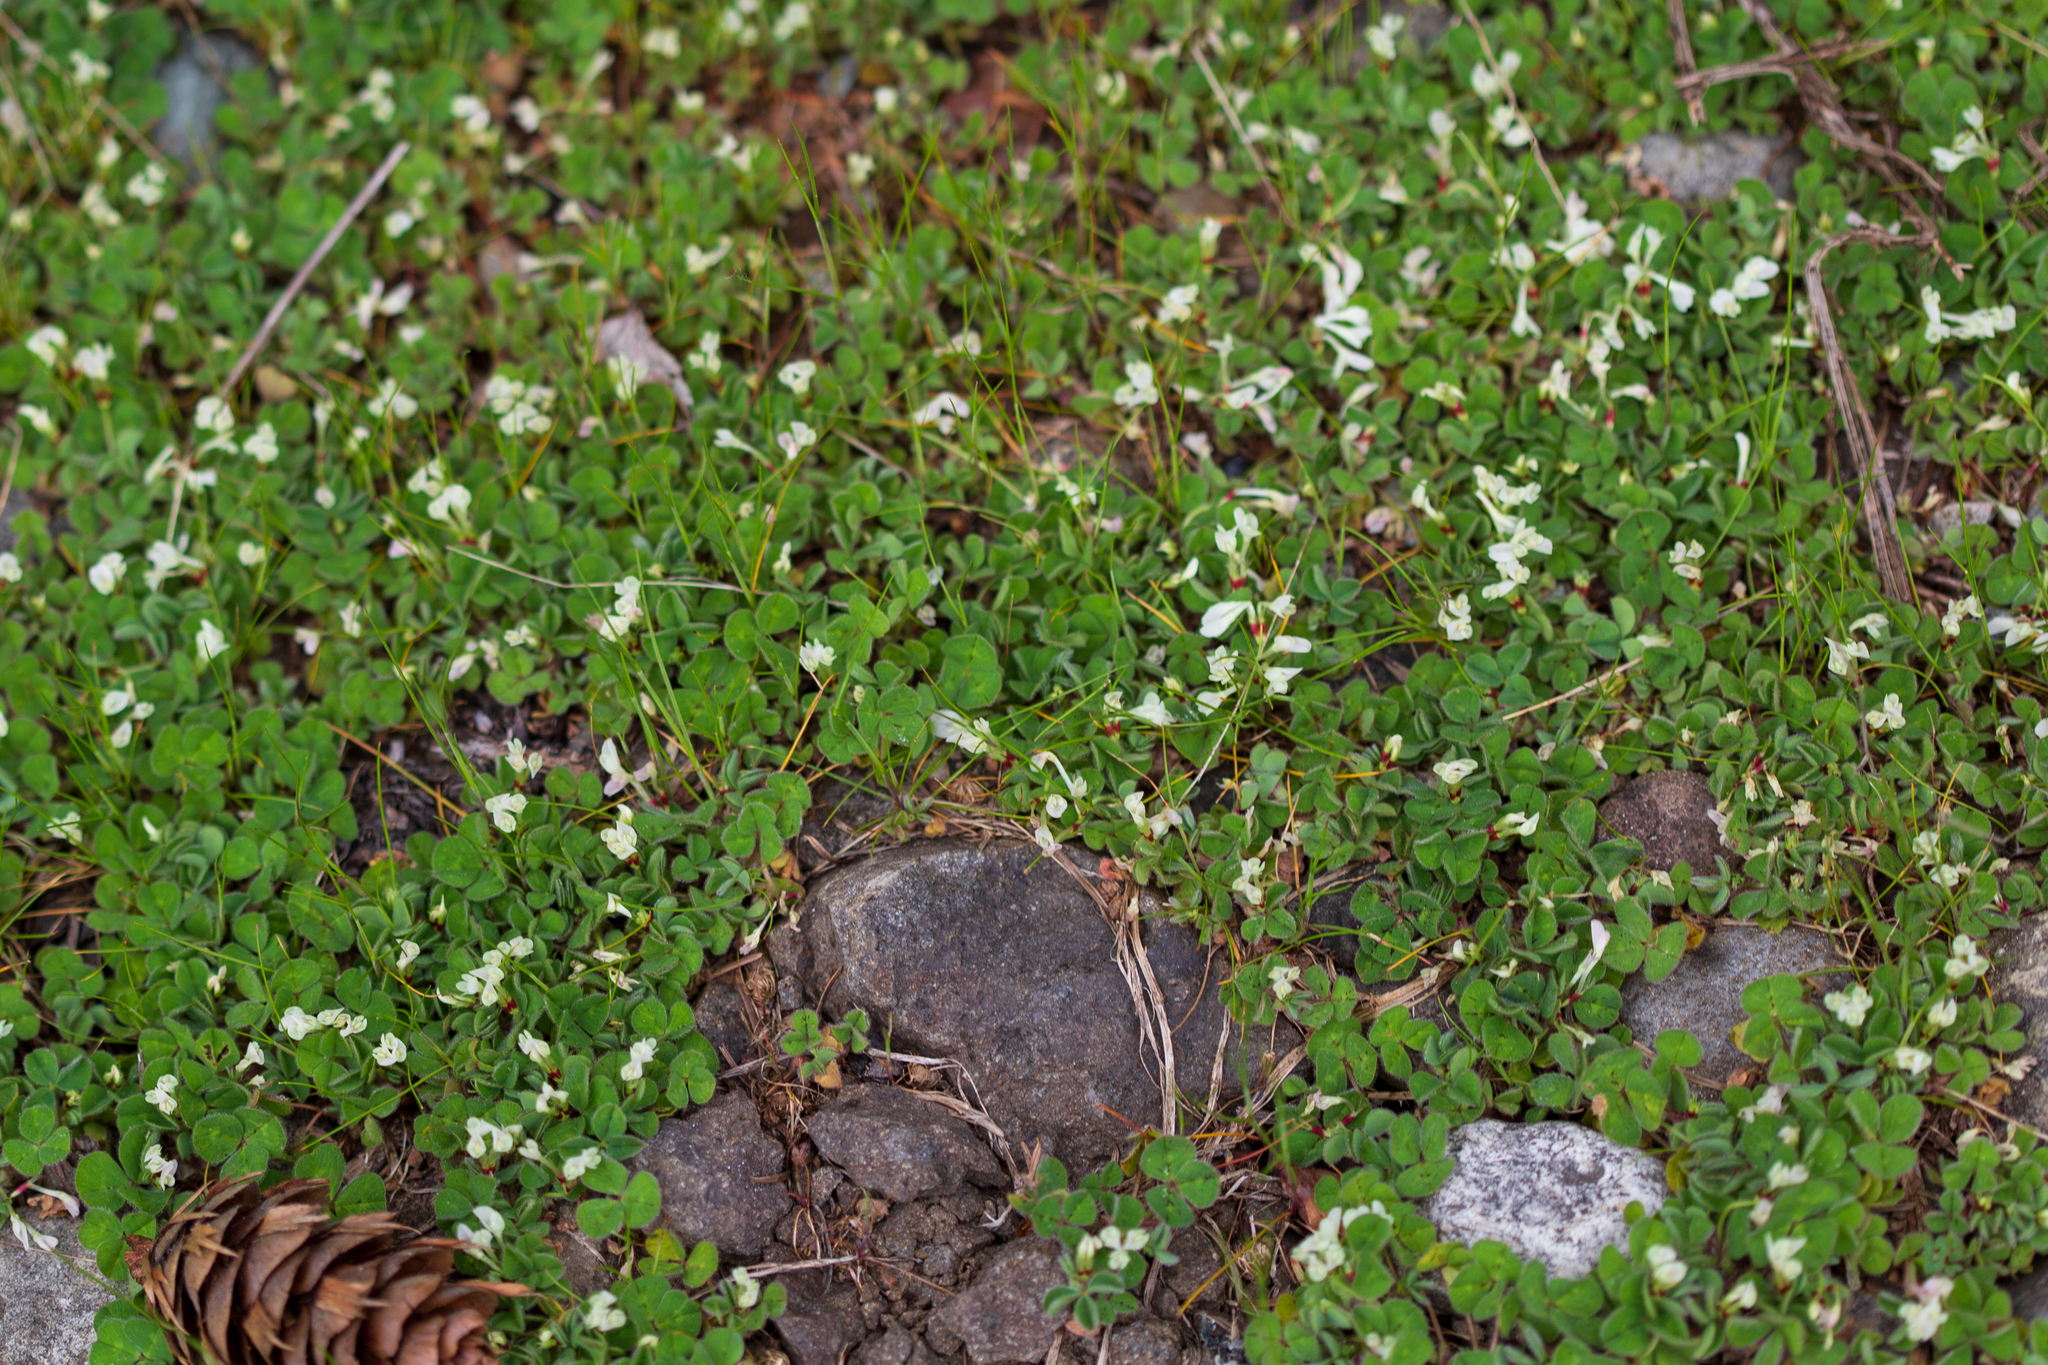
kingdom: Plantae
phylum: Tracheophyta
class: Magnoliopsida
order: Fabales
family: Fabaceae
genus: Trifolium
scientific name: Trifolium subterraneum
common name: Subterranean clover
